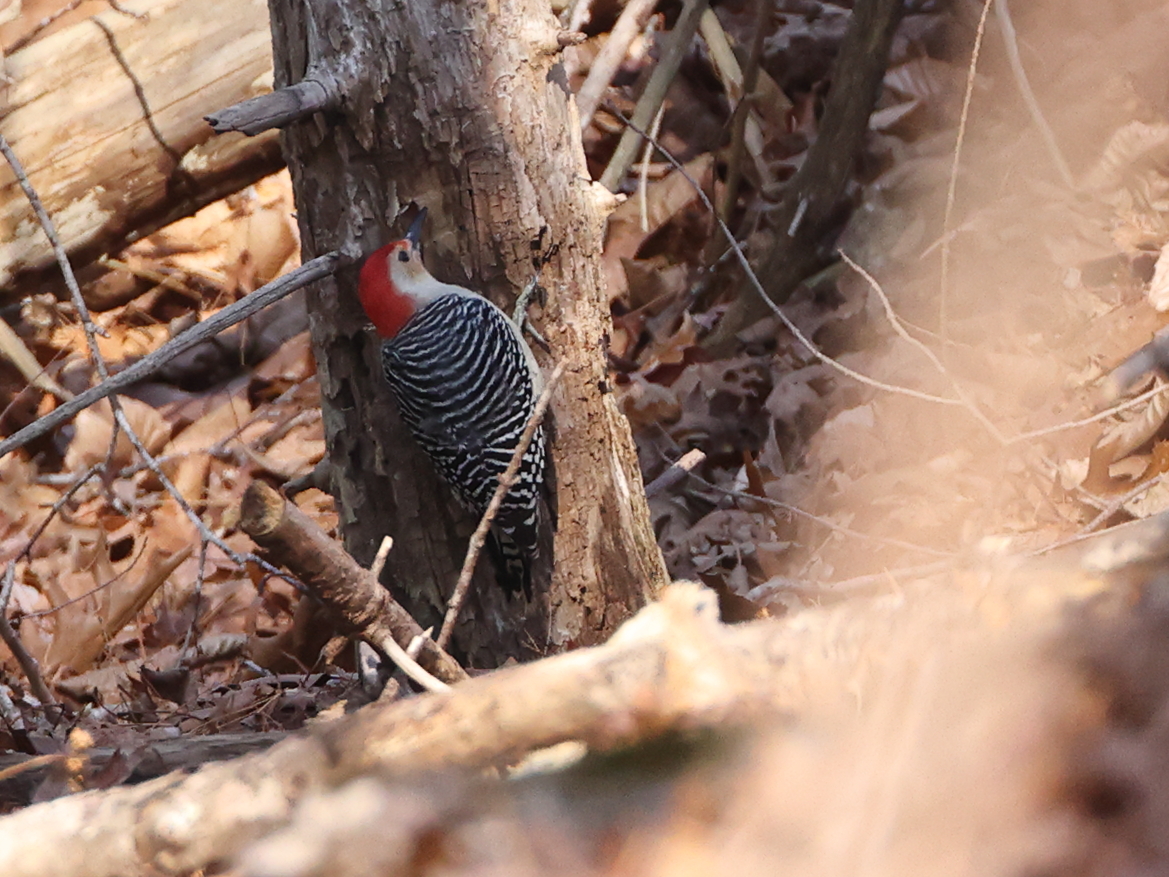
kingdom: Animalia
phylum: Chordata
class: Aves
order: Piciformes
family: Picidae
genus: Melanerpes
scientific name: Melanerpes carolinus
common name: Red-bellied woodpecker
